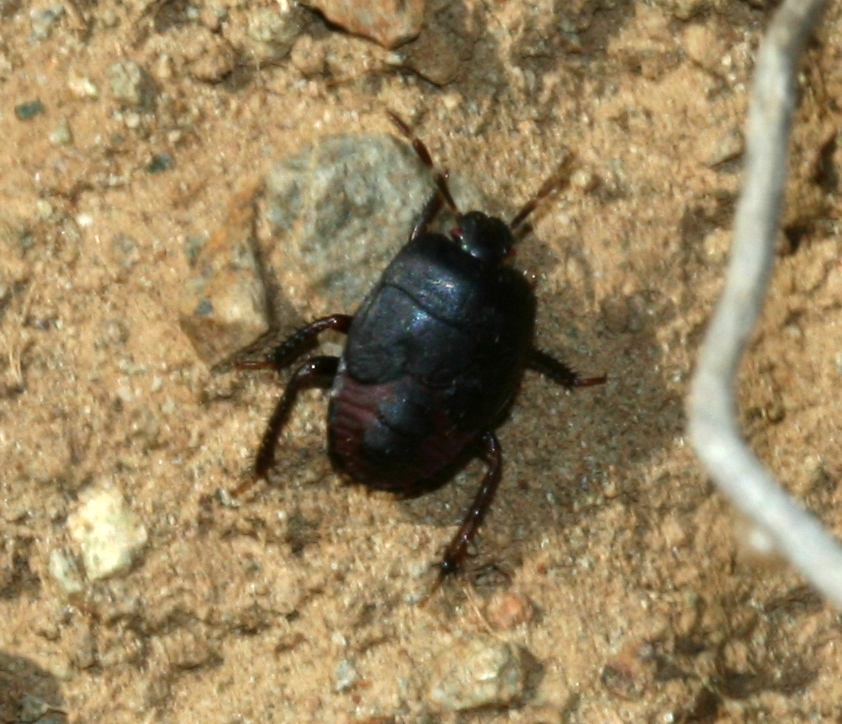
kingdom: Animalia
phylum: Arthropoda
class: Insecta
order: Hemiptera
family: Cydnidae
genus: Cydnus
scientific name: Cydnus aterrimus
